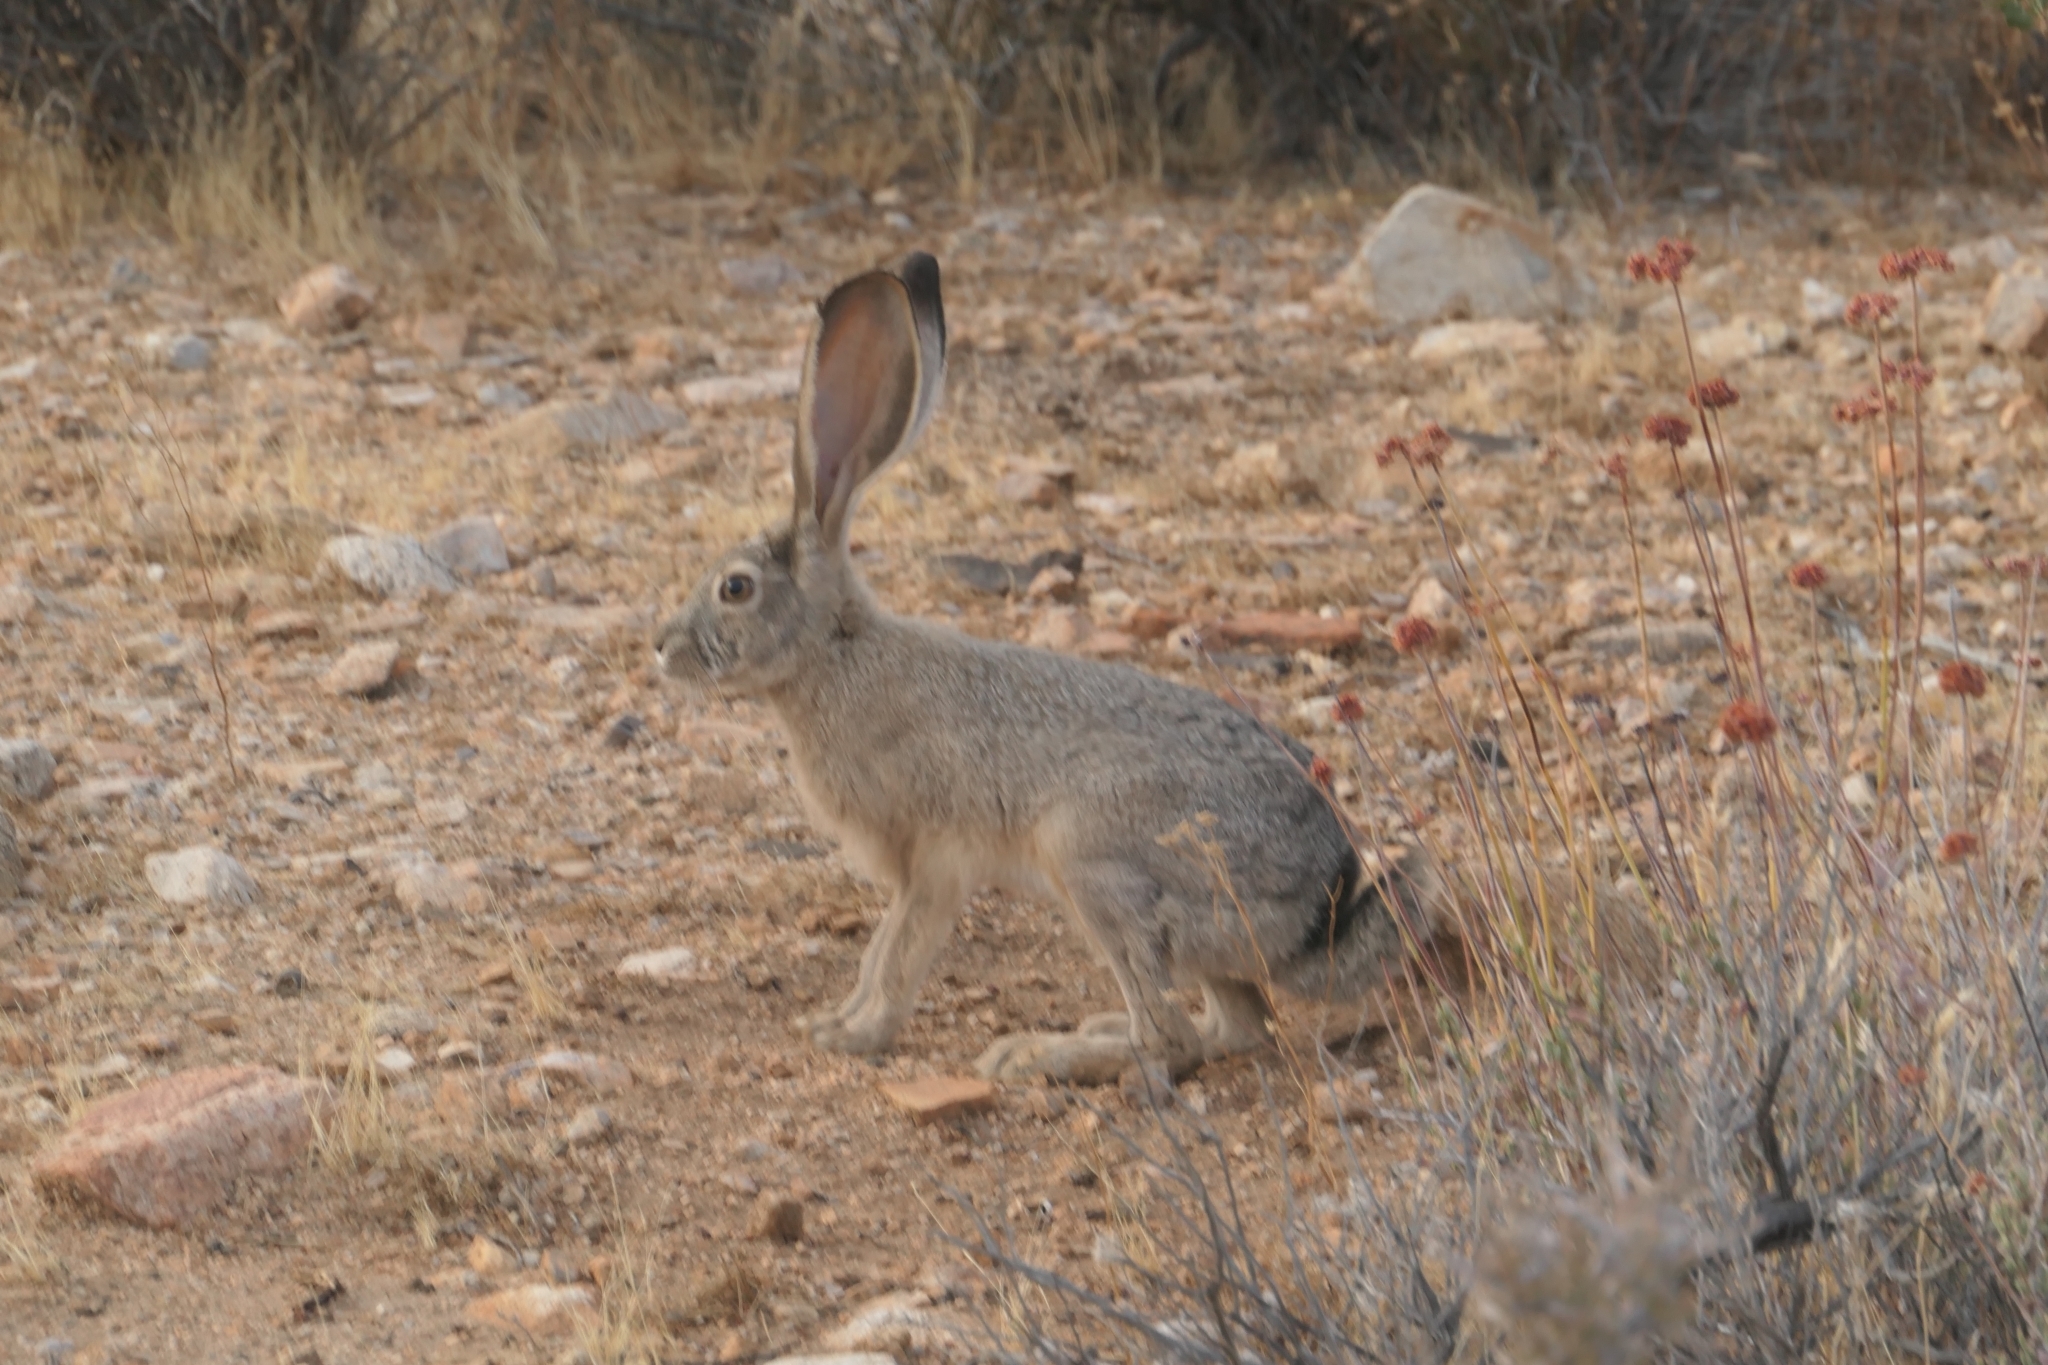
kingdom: Animalia
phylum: Chordata
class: Mammalia
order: Lagomorpha
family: Leporidae
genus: Lepus
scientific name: Lepus californicus
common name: Black-tailed jackrabbit
